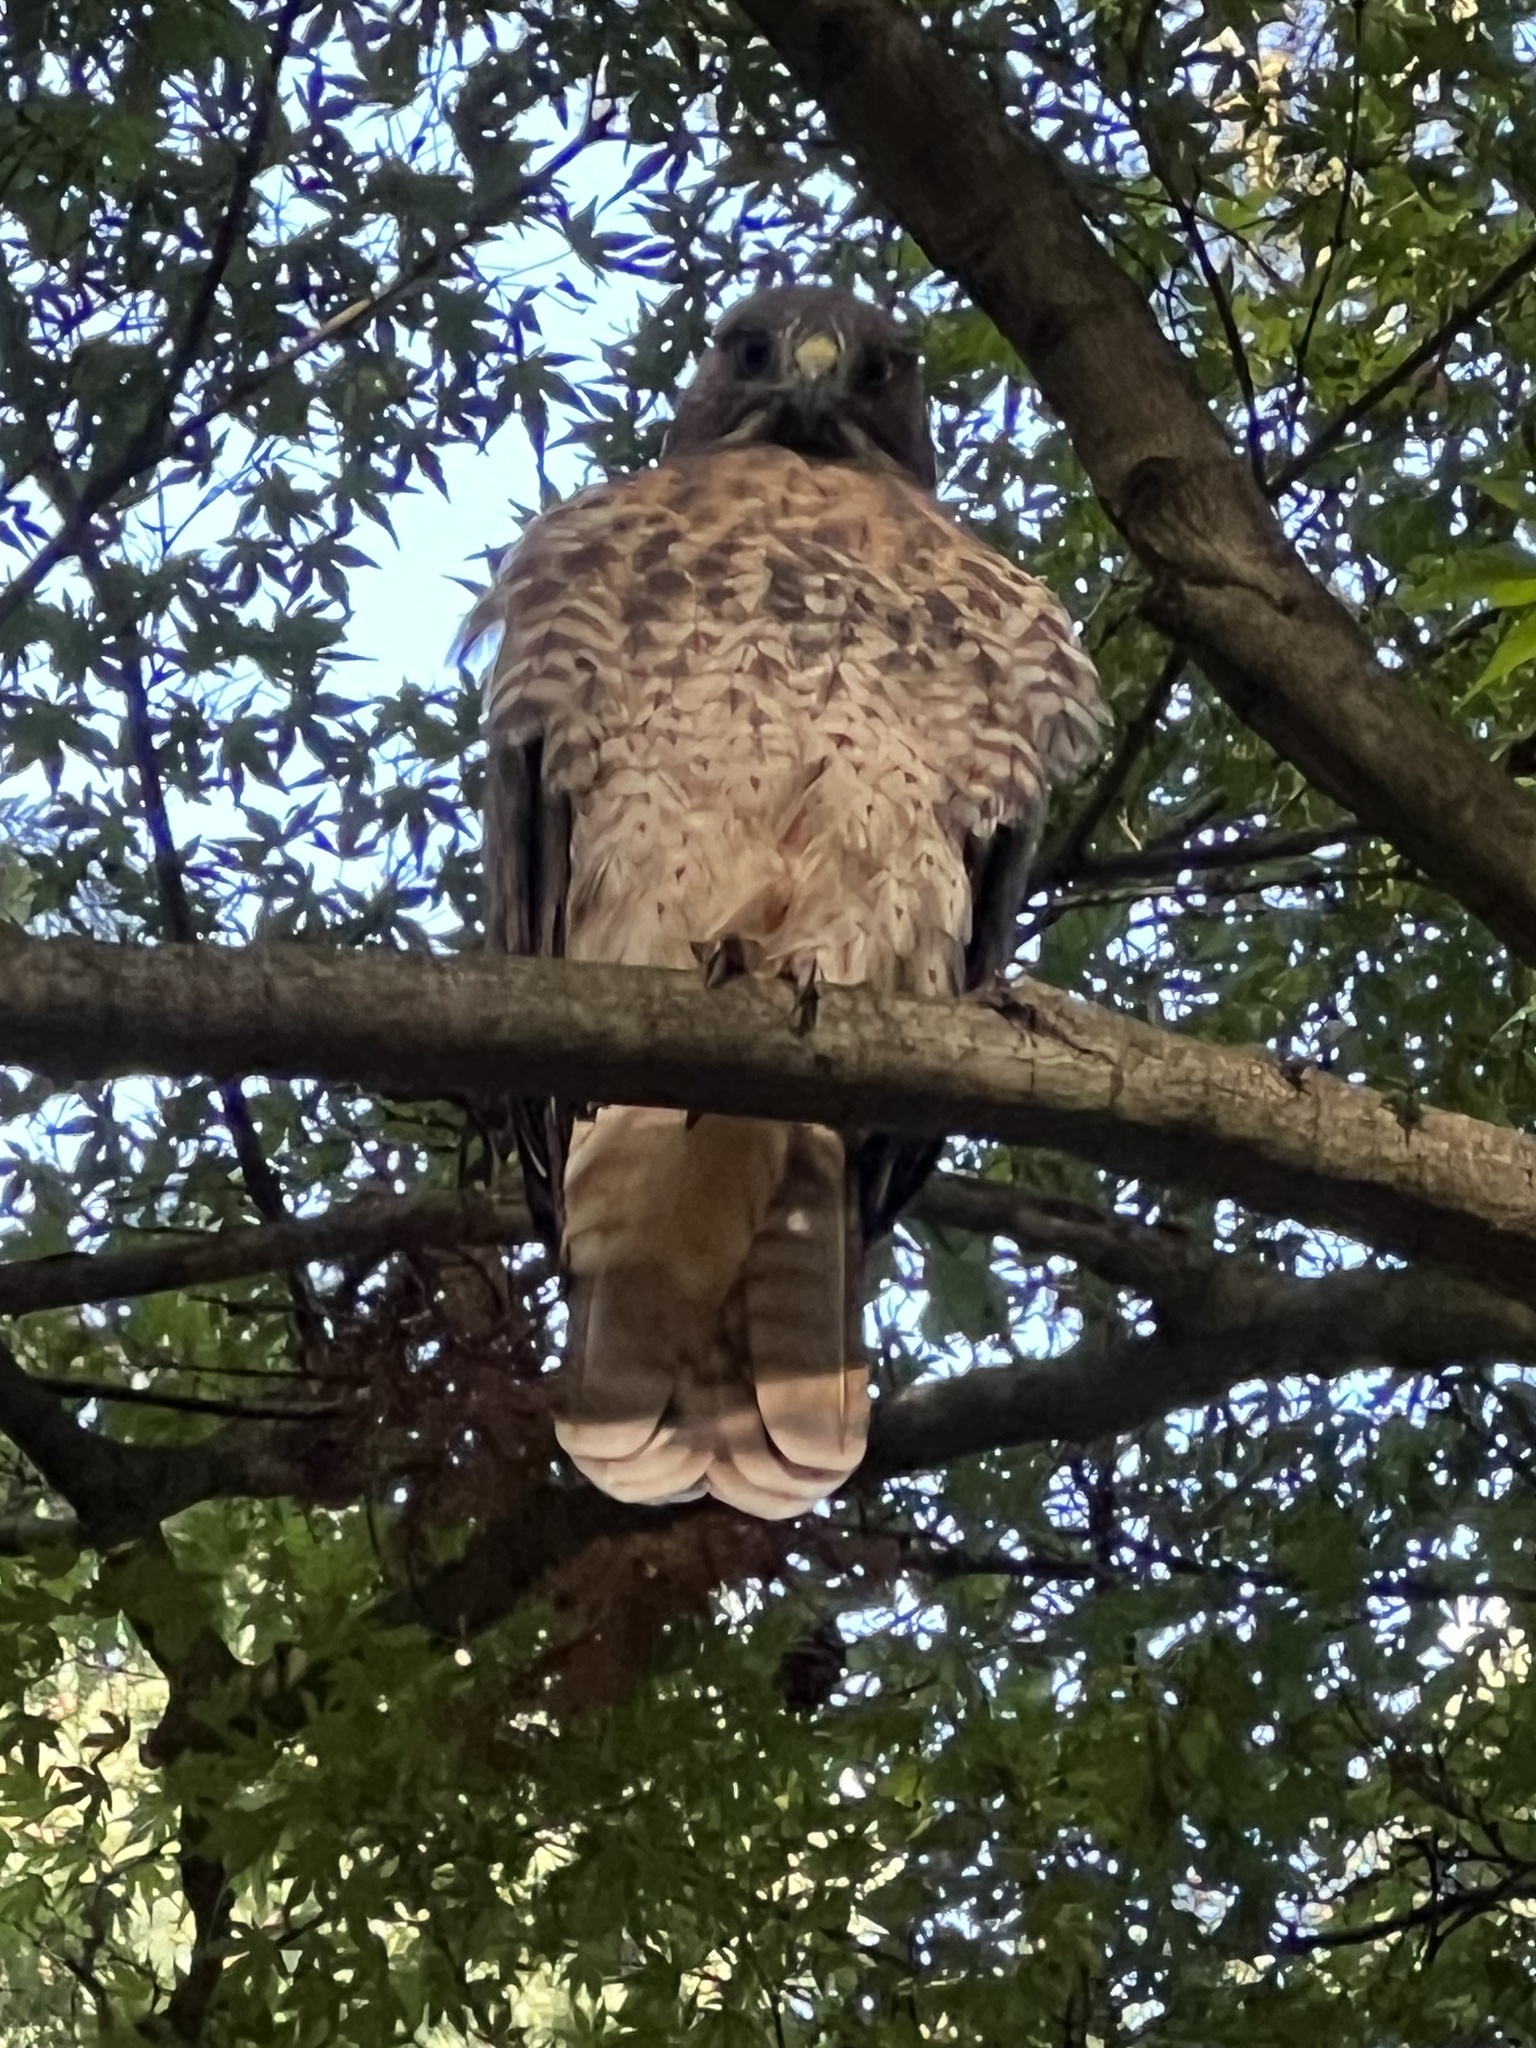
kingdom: Animalia
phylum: Chordata
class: Aves
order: Accipitriformes
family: Accipitridae
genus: Buteo
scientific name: Buteo jamaicensis
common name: Red-tailed hawk
